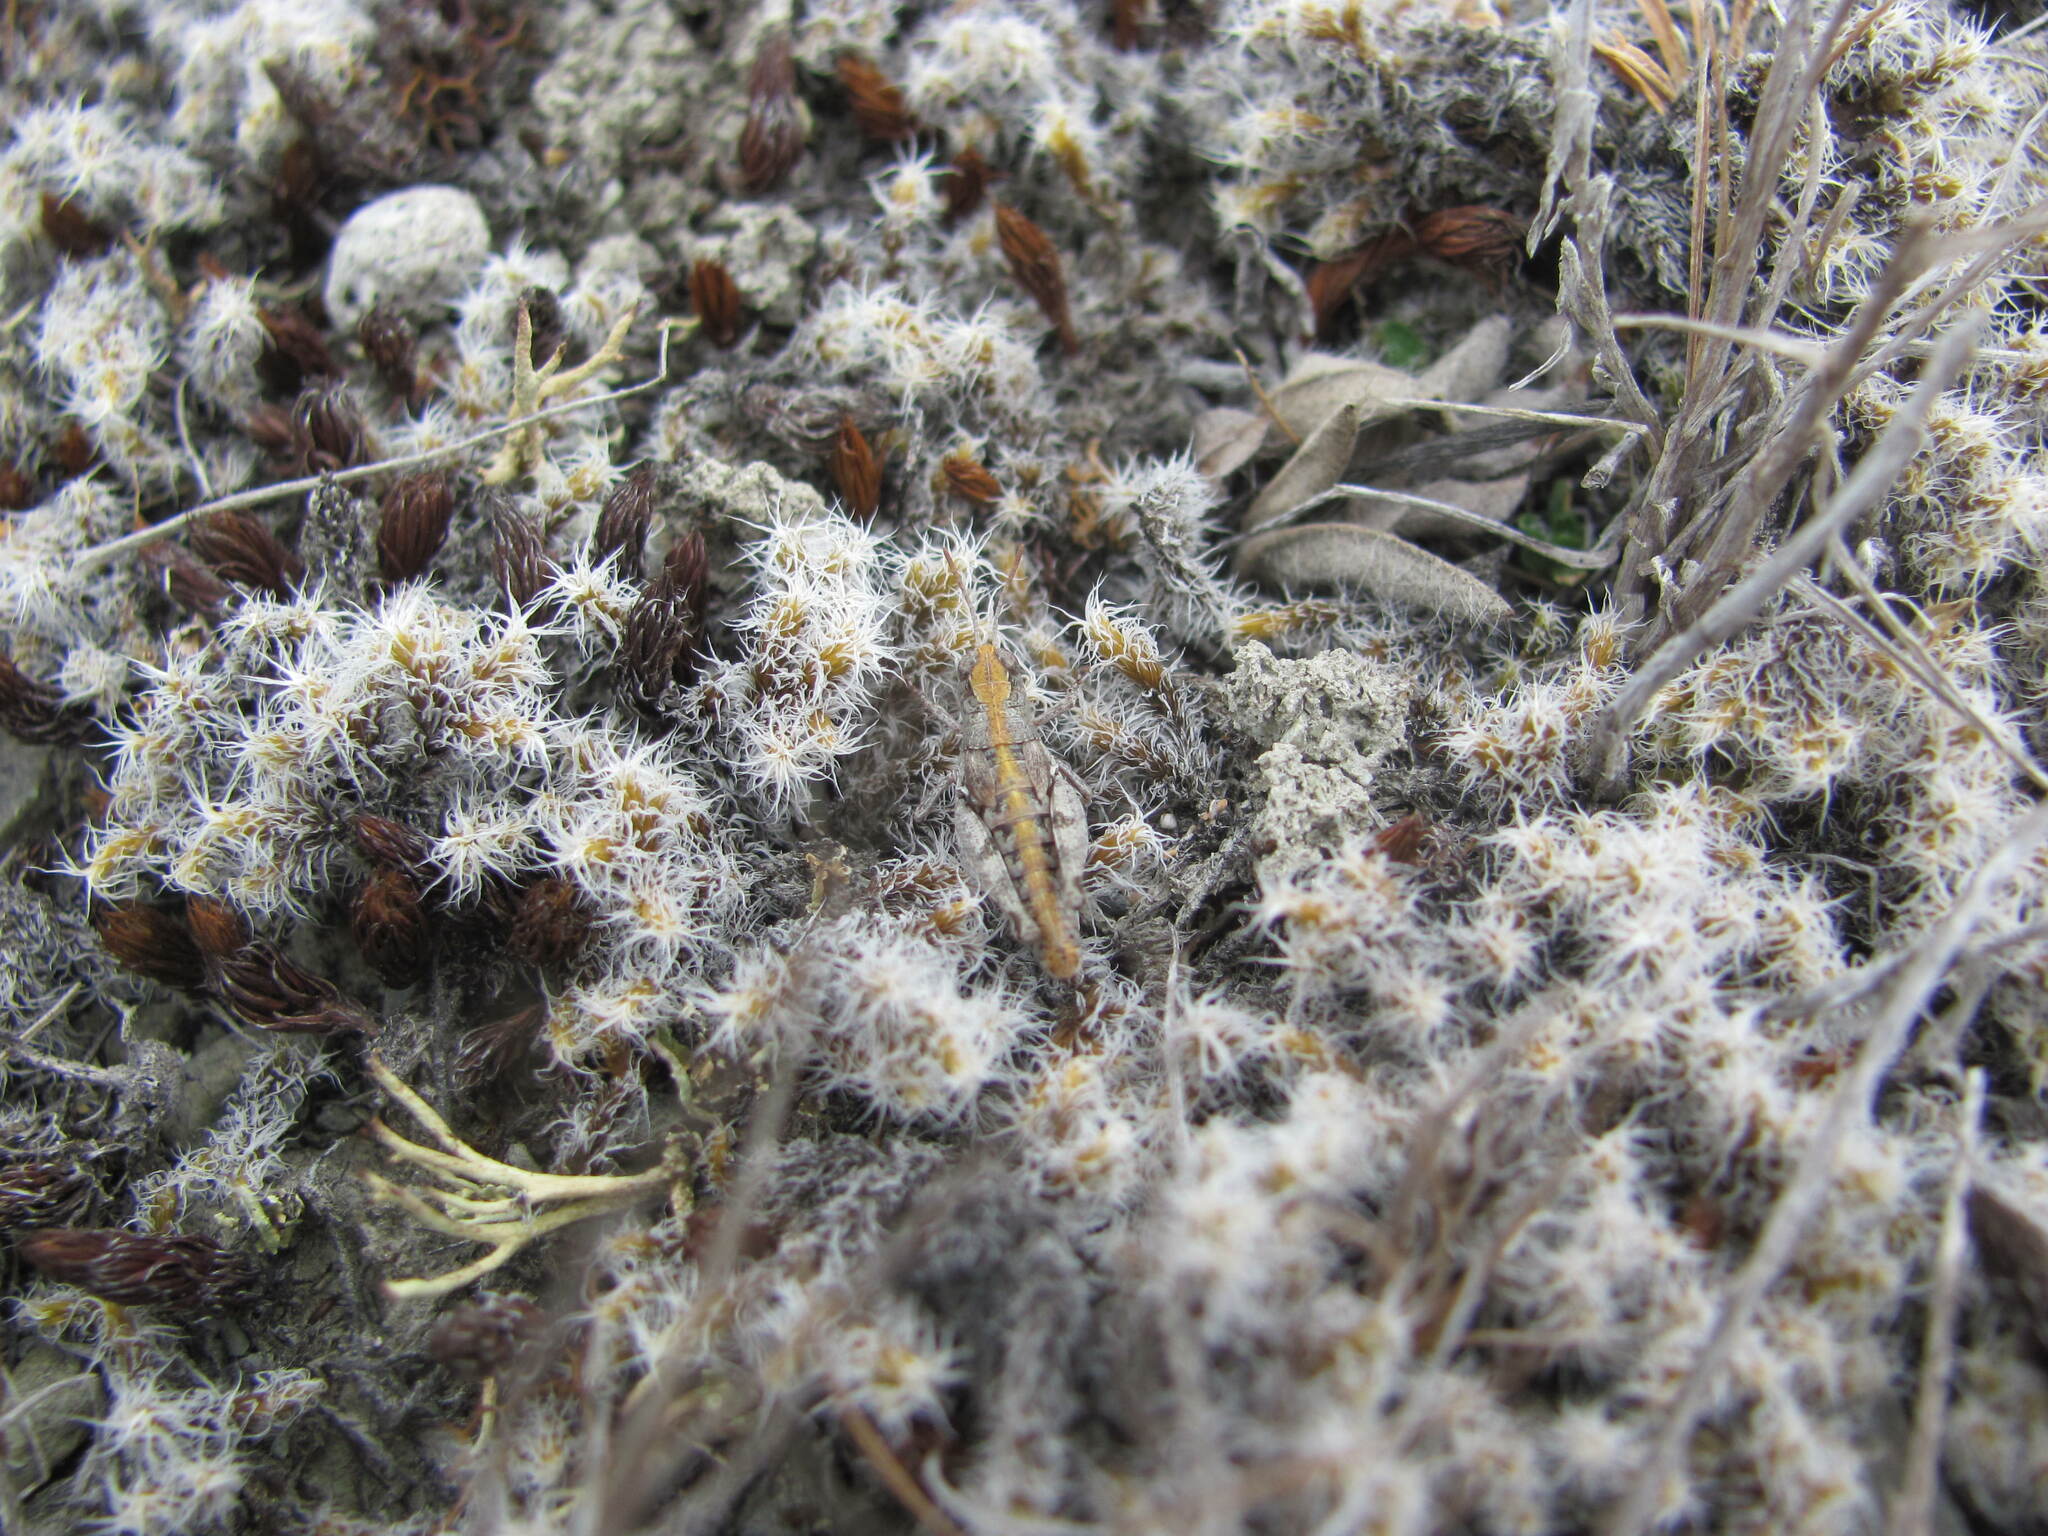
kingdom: Animalia
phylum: Arthropoda
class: Insecta
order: Orthoptera
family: Acrididae
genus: Phaulacridium
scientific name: Phaulacridium otagoense
